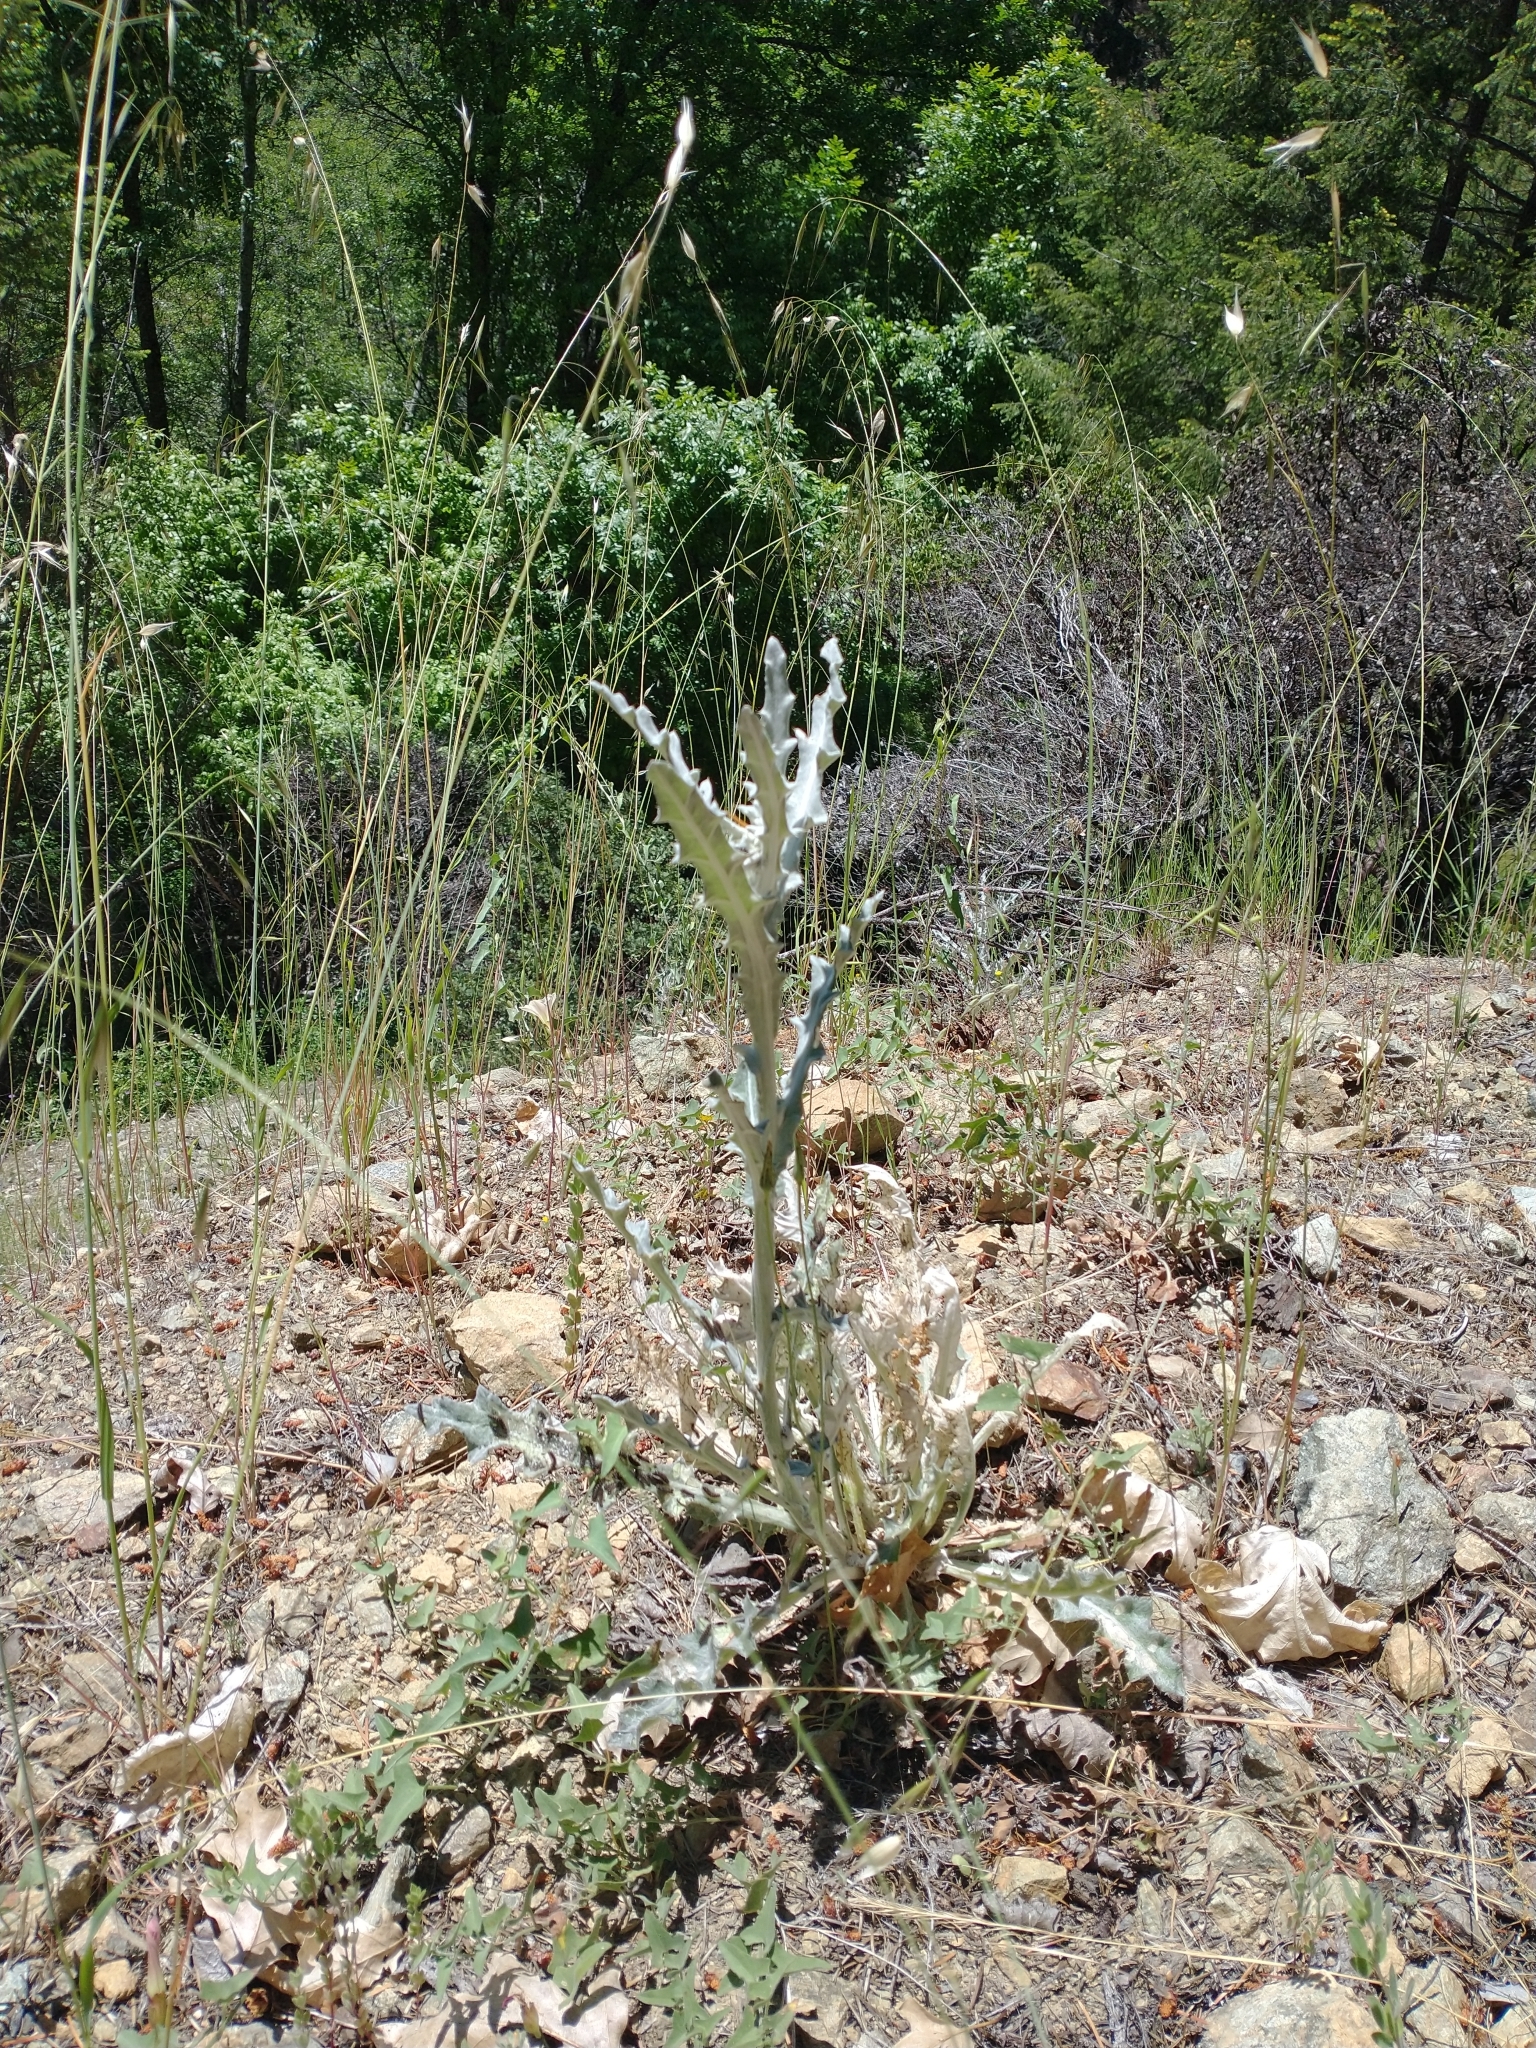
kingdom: Plantae
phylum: Tracheophyta
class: Magnoliopsida
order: Asterales
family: Asteraceae
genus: Cirsium
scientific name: Cirsium occidentale
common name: Western thistle
